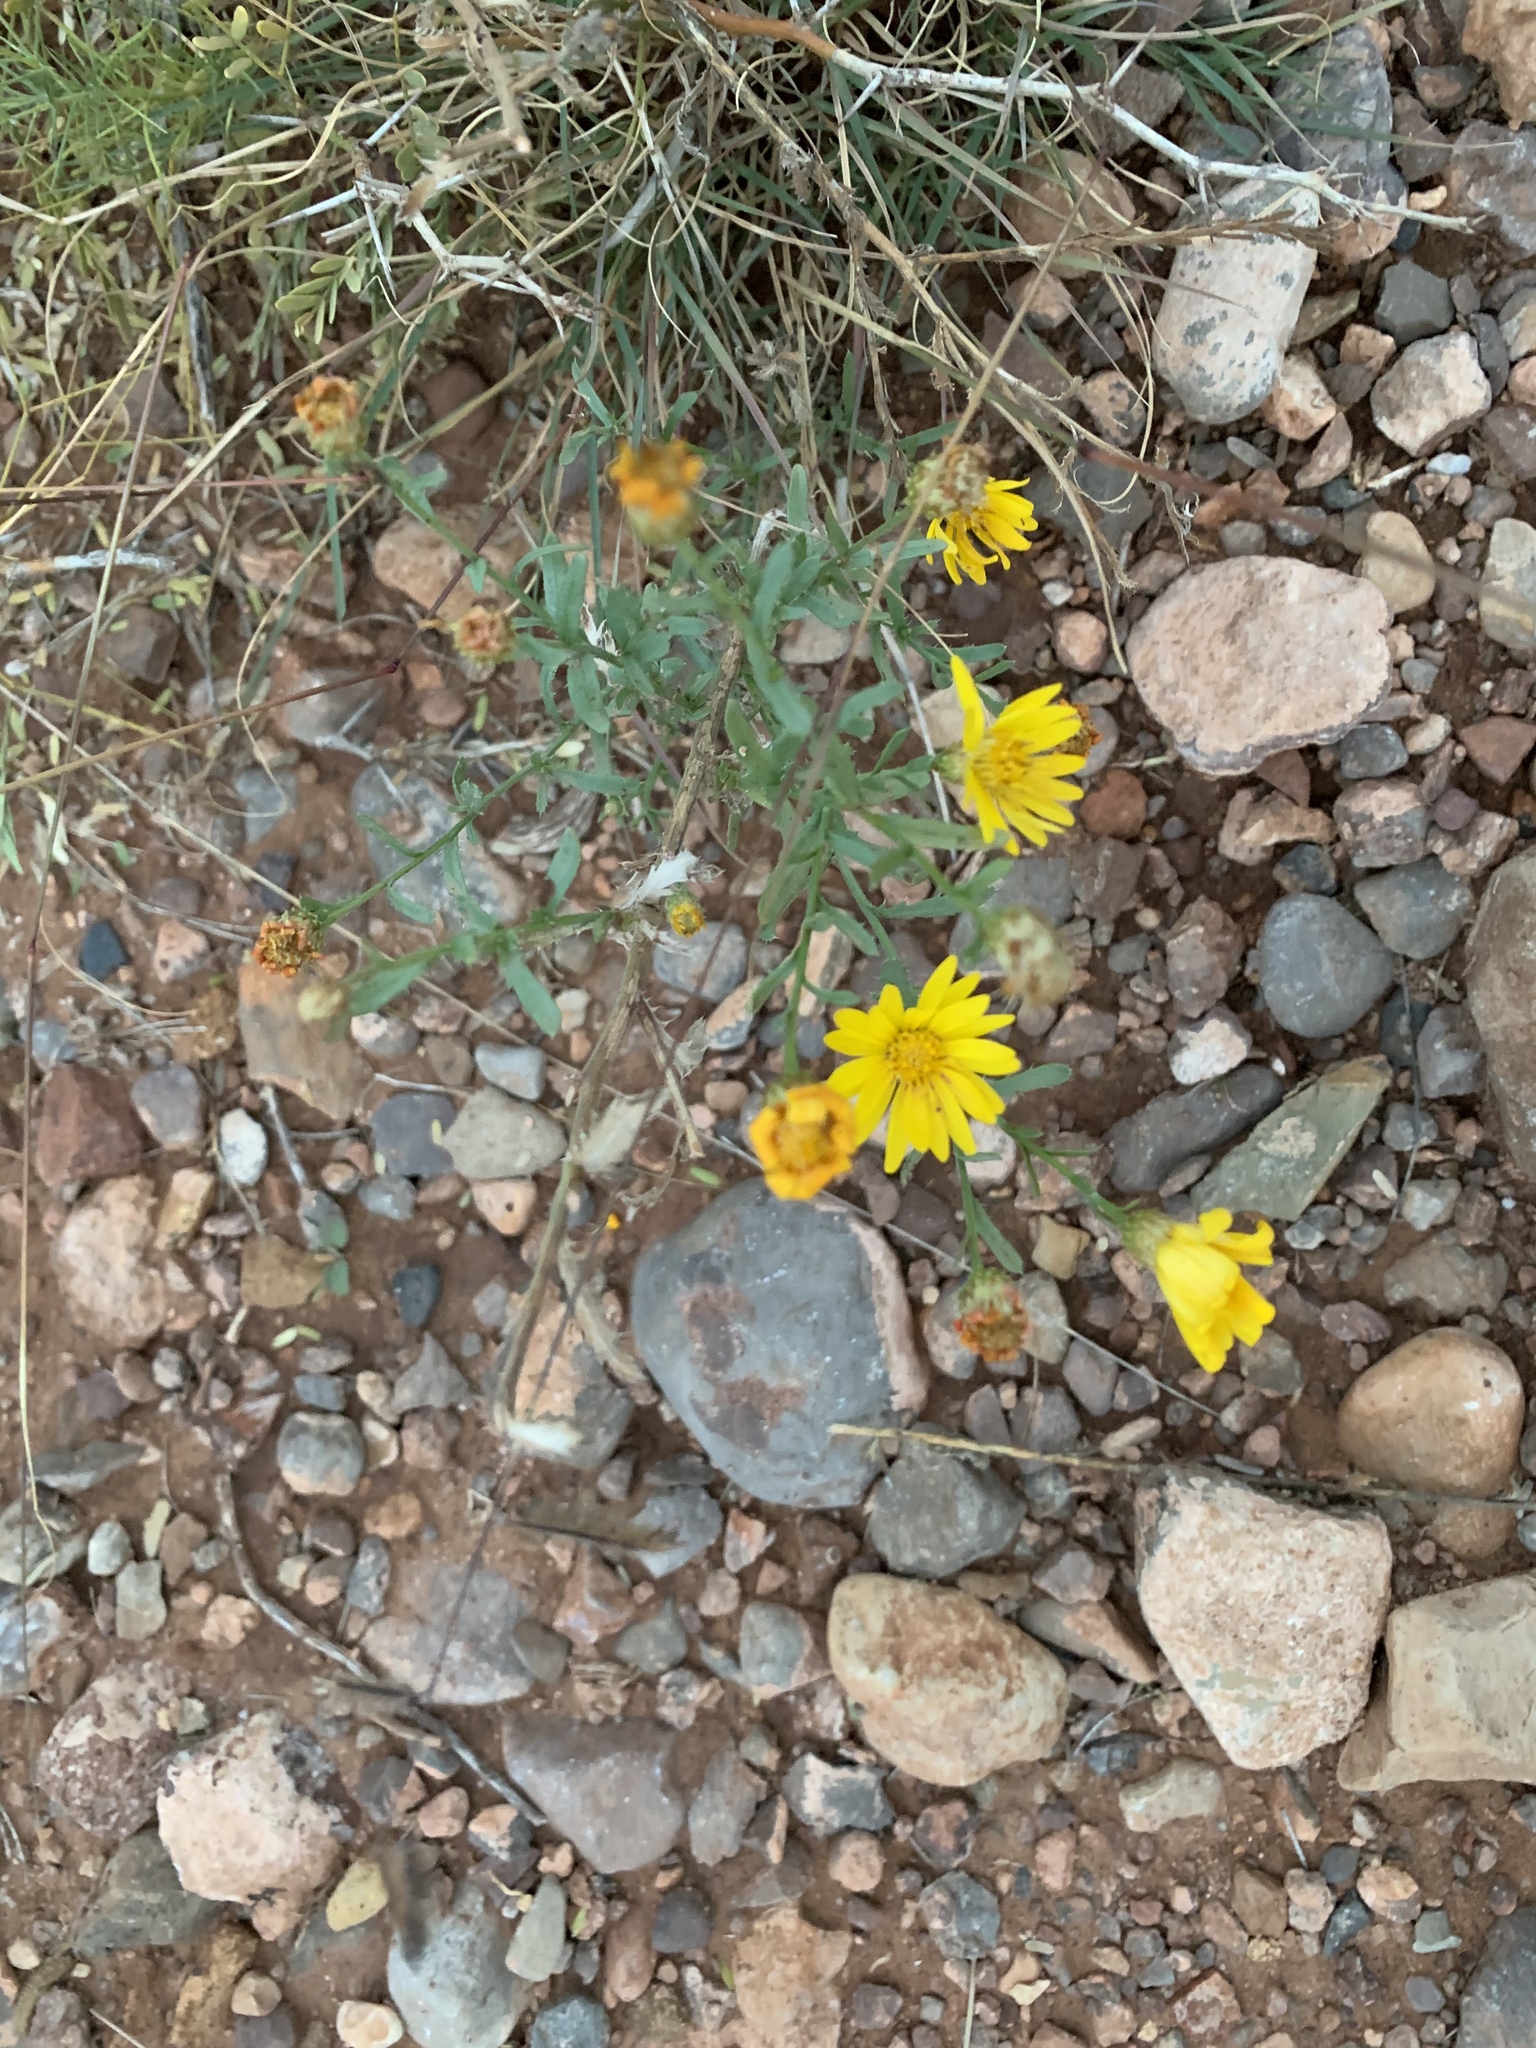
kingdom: Plantae
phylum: Tracheophyta
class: Magnoliopsida
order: Asterales
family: Asteraceae
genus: Xanthisma
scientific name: Xanthisma spinulosum
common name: Spiny goldenweed
